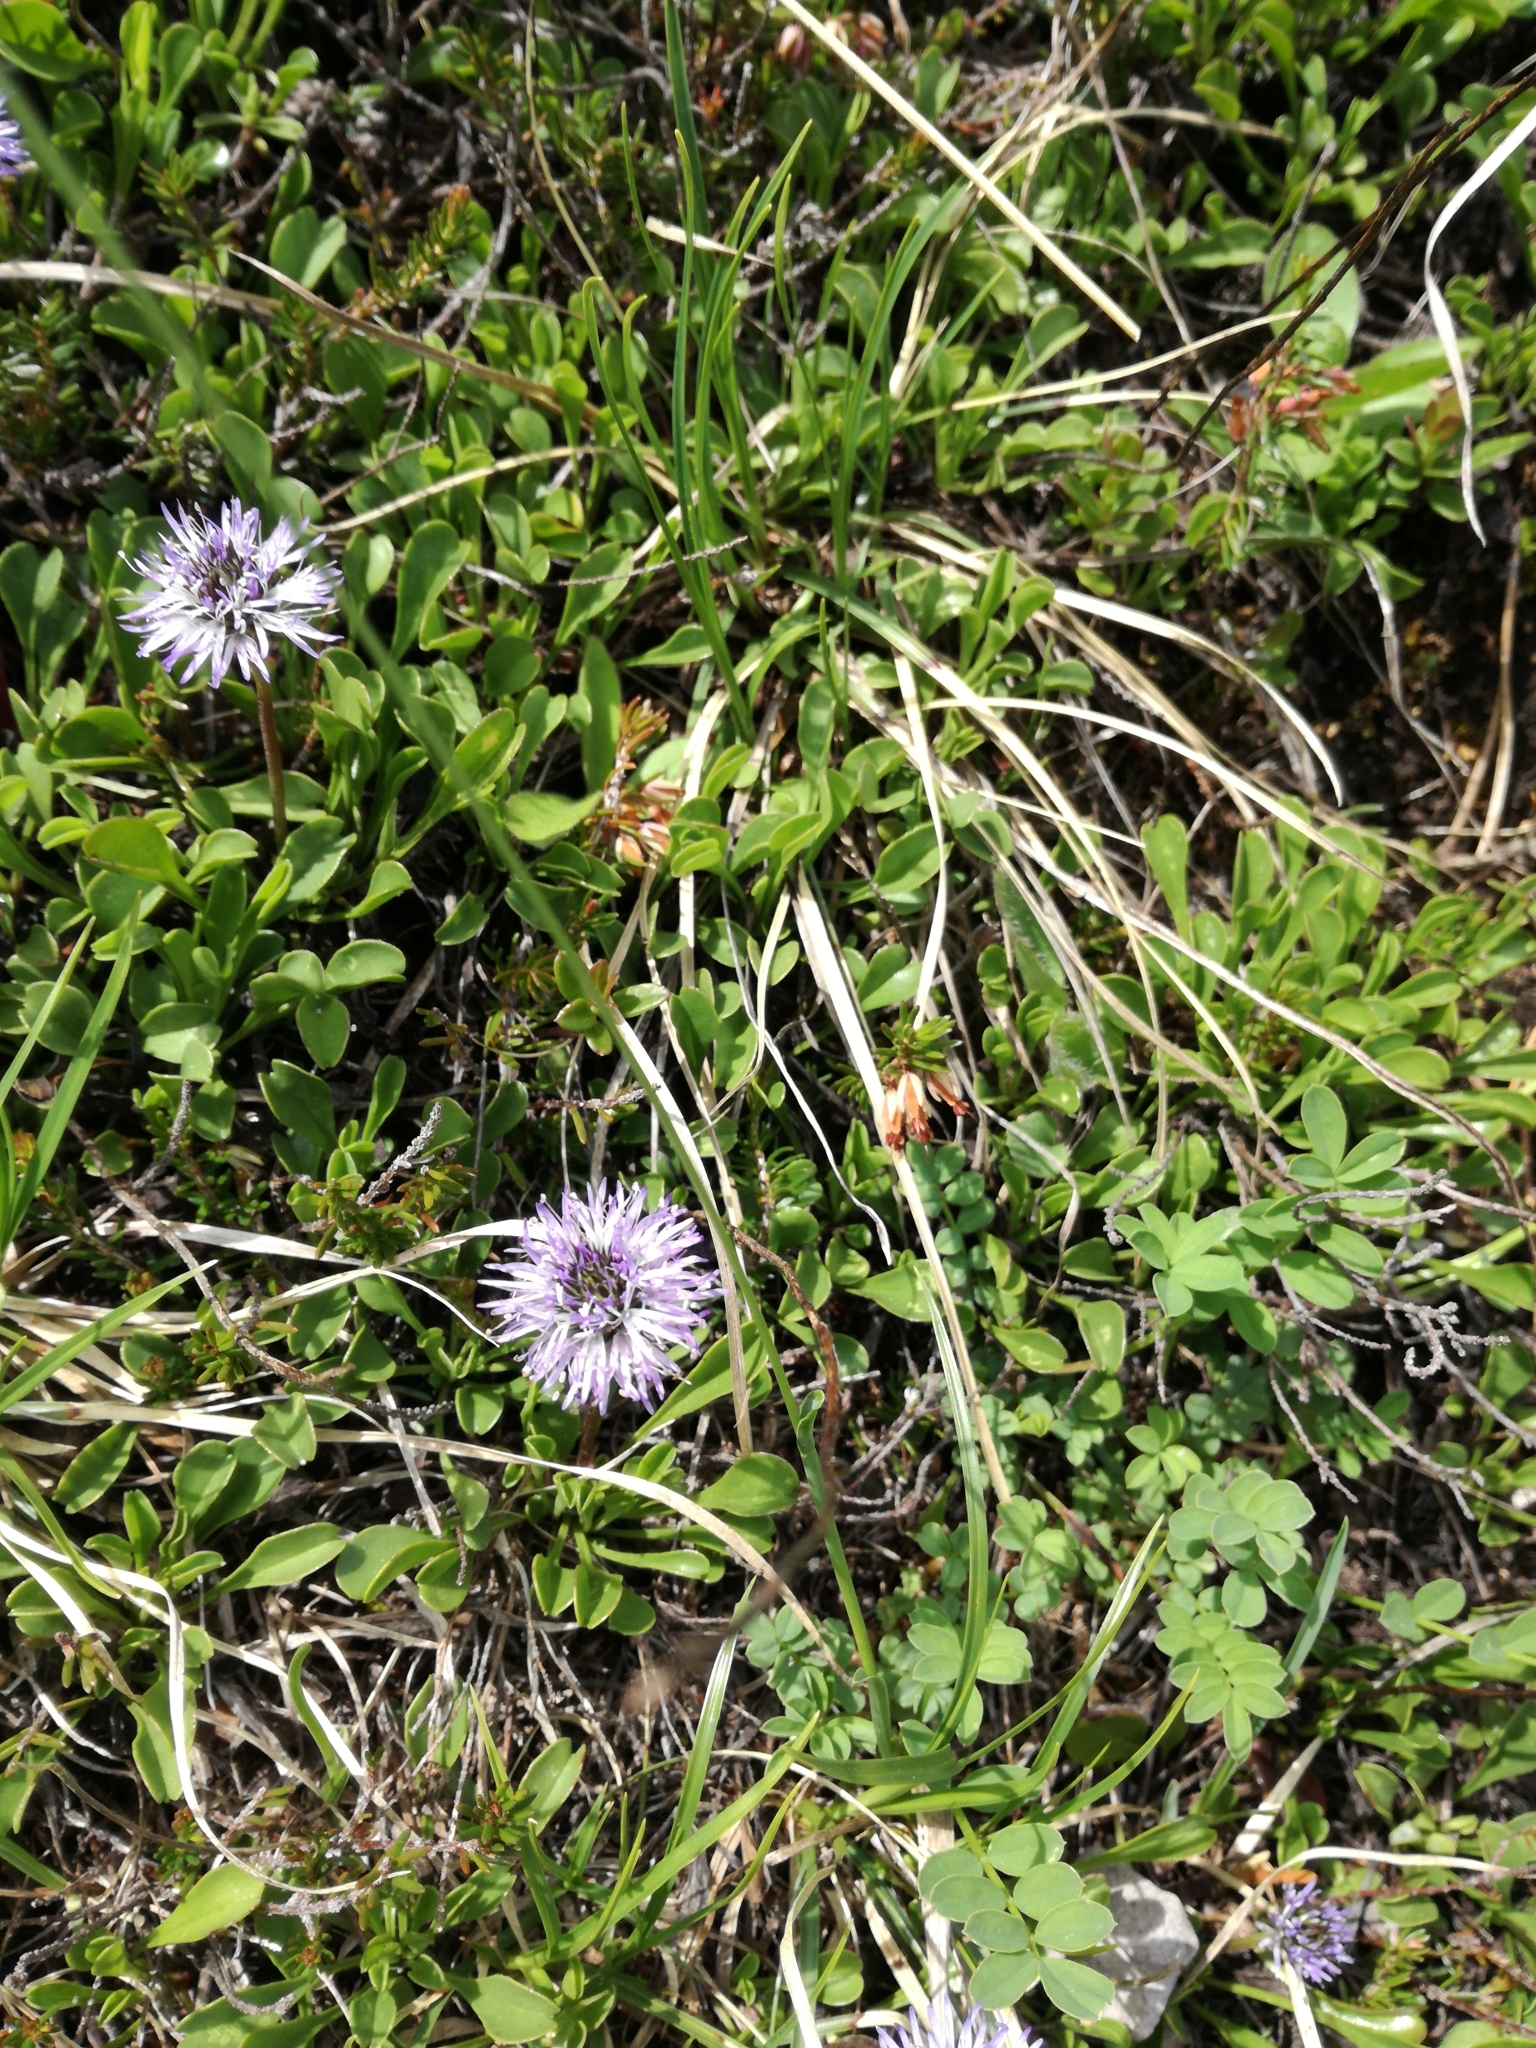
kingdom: Plantae
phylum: Tracheophyta
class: Magnoliopsida
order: Lamiales
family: Plantaginaceae
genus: Globularia
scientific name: Globularia cordifolia
